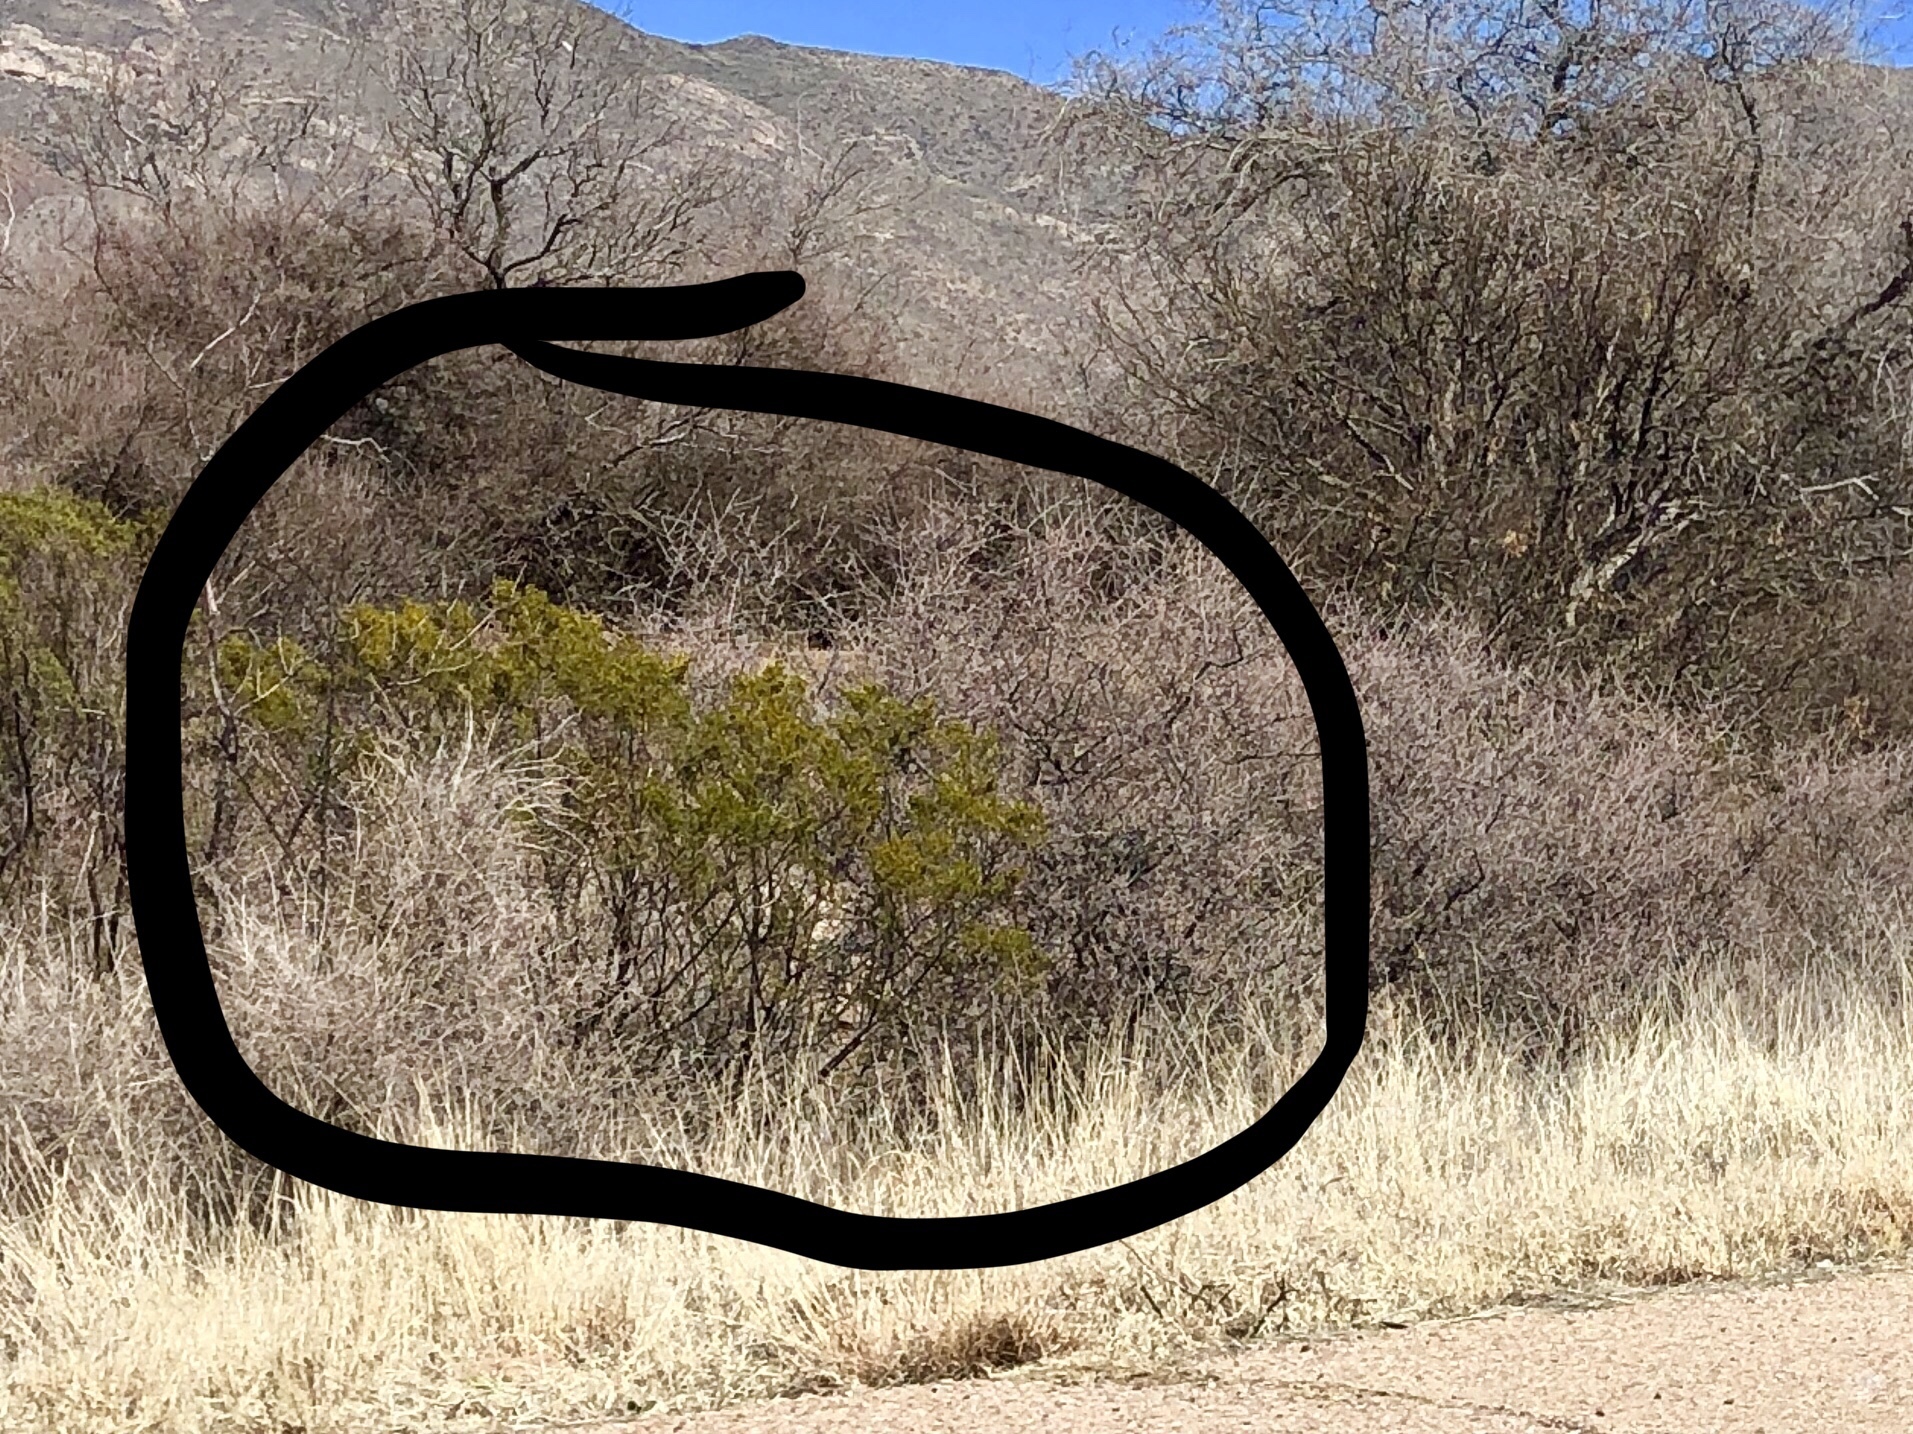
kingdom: Plantae
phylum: Tracheophyta
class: Magnoliopsida
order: Zygophyllales
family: Zygophyllaceae
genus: Larrea
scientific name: Larrea tridentata
